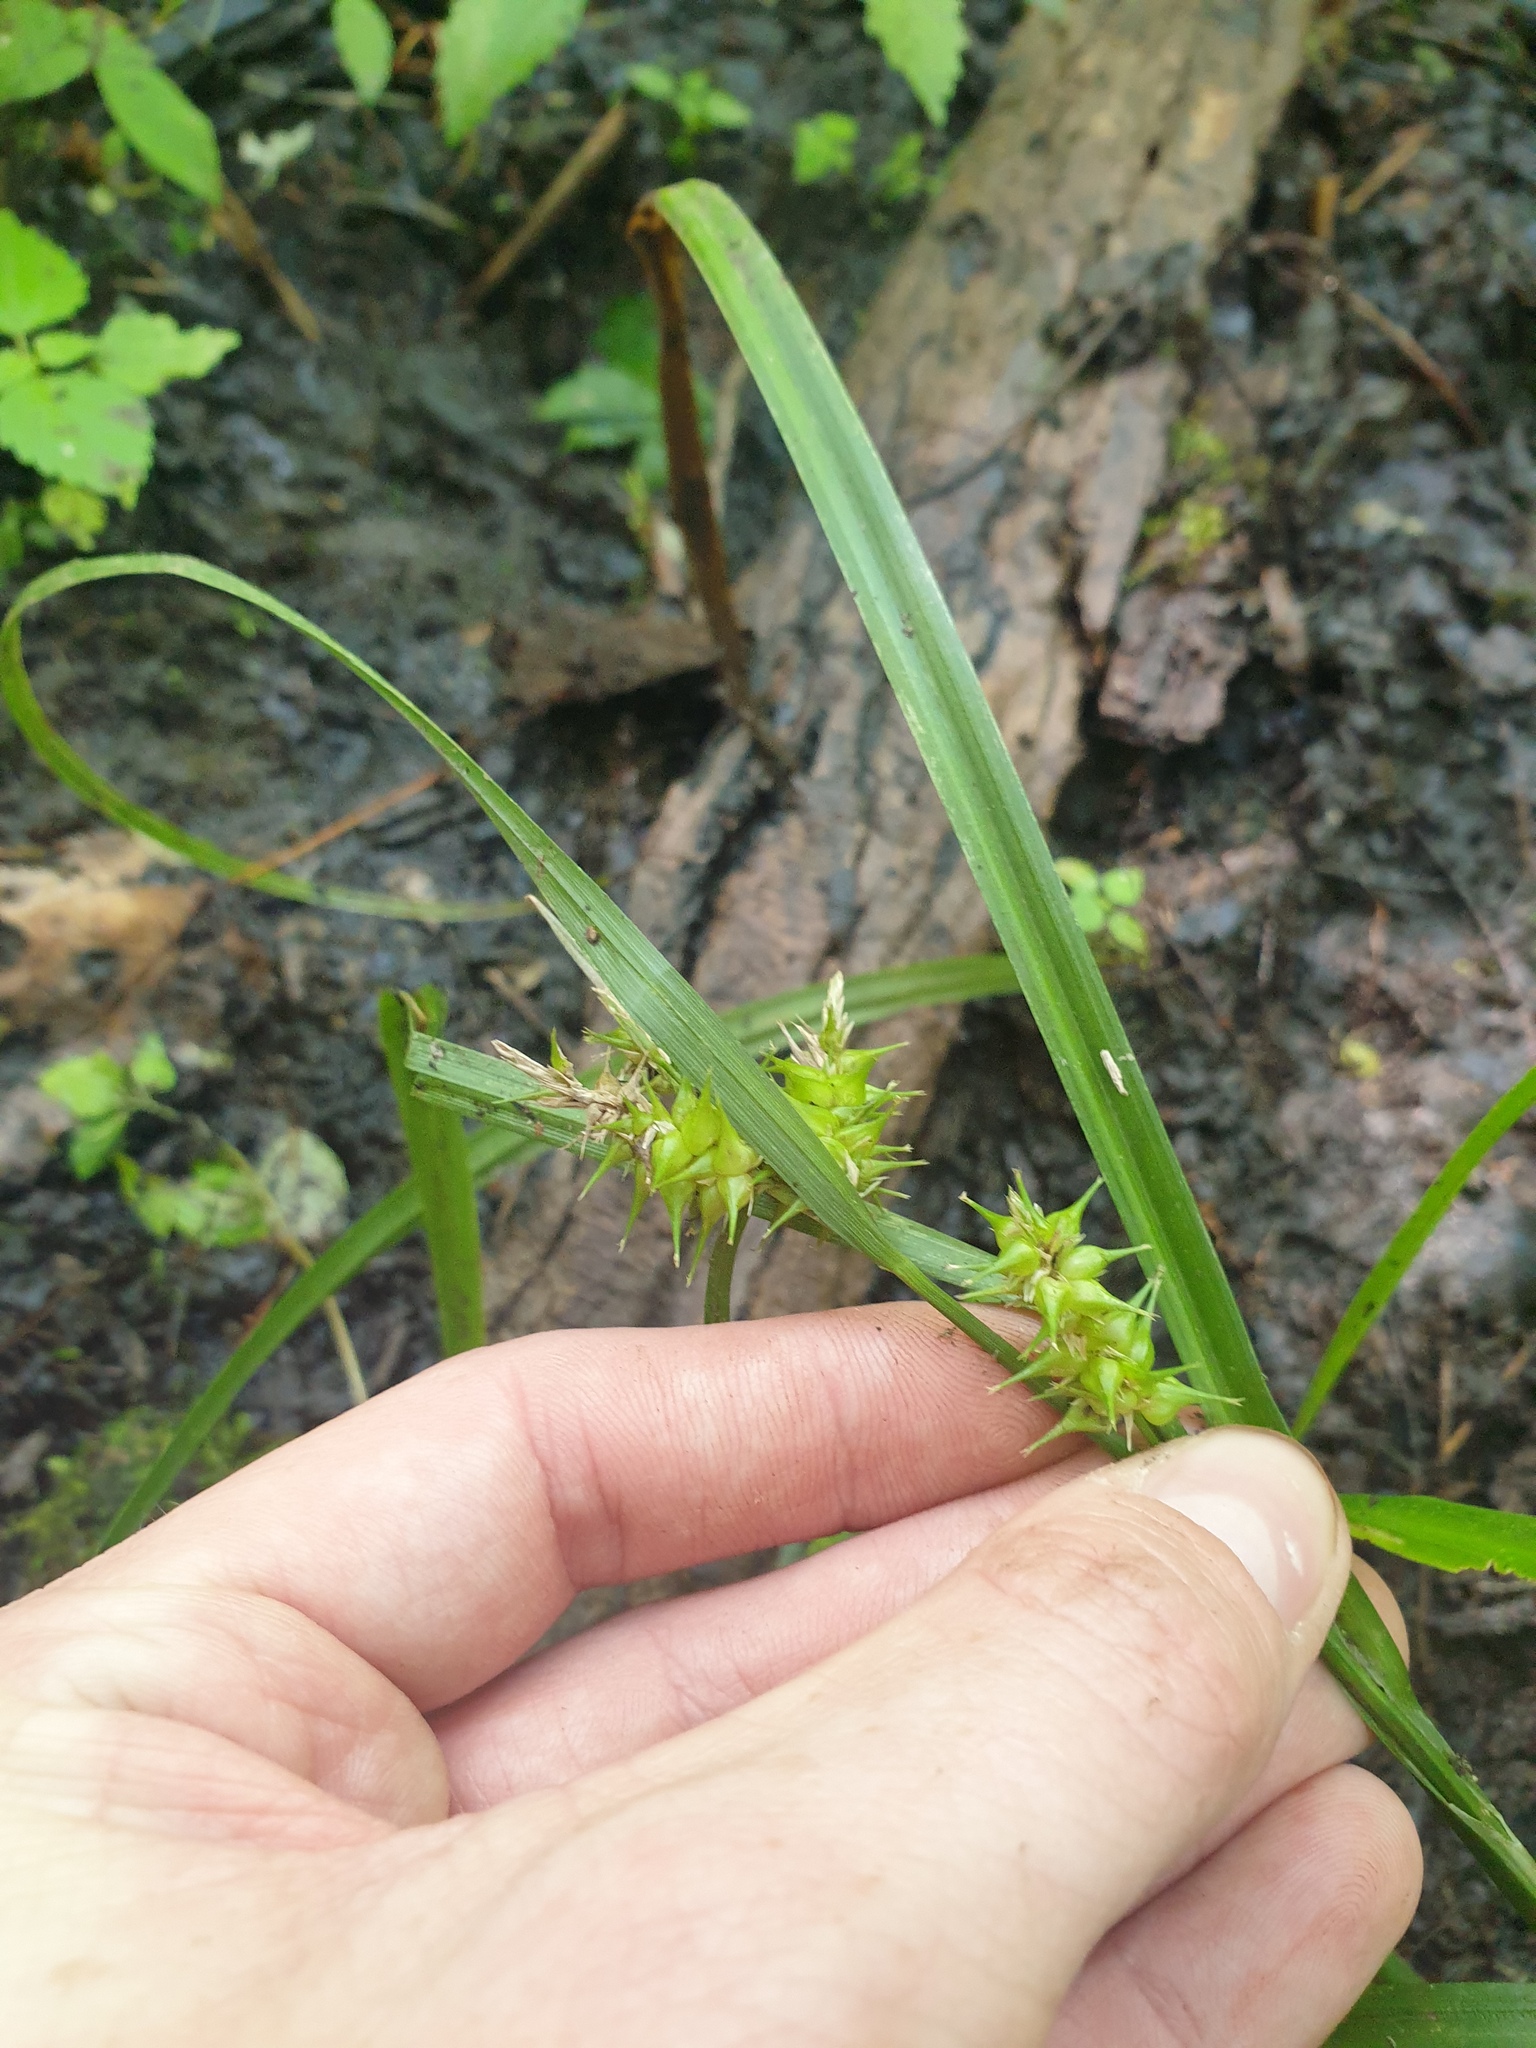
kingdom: Plantae
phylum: Tracheophyta
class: Liliopsida
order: Poales
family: Cyperaceae
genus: Carex
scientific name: Carex retrorsa
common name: Knot-sheath sedge
